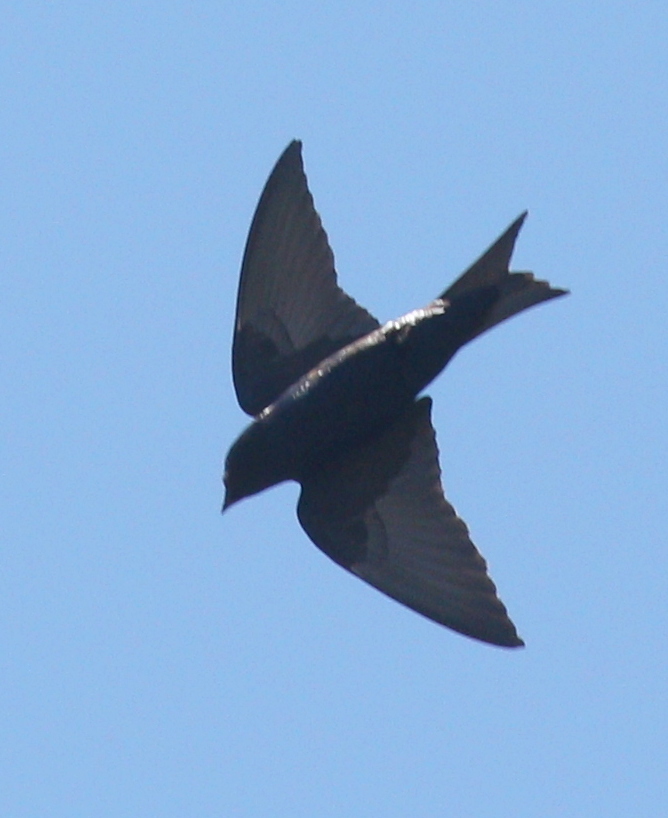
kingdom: Animalia
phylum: Chordata
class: Aves
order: Passeriformes
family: Hirundinidae
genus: Progne
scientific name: Progne elegans
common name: Southern martin
